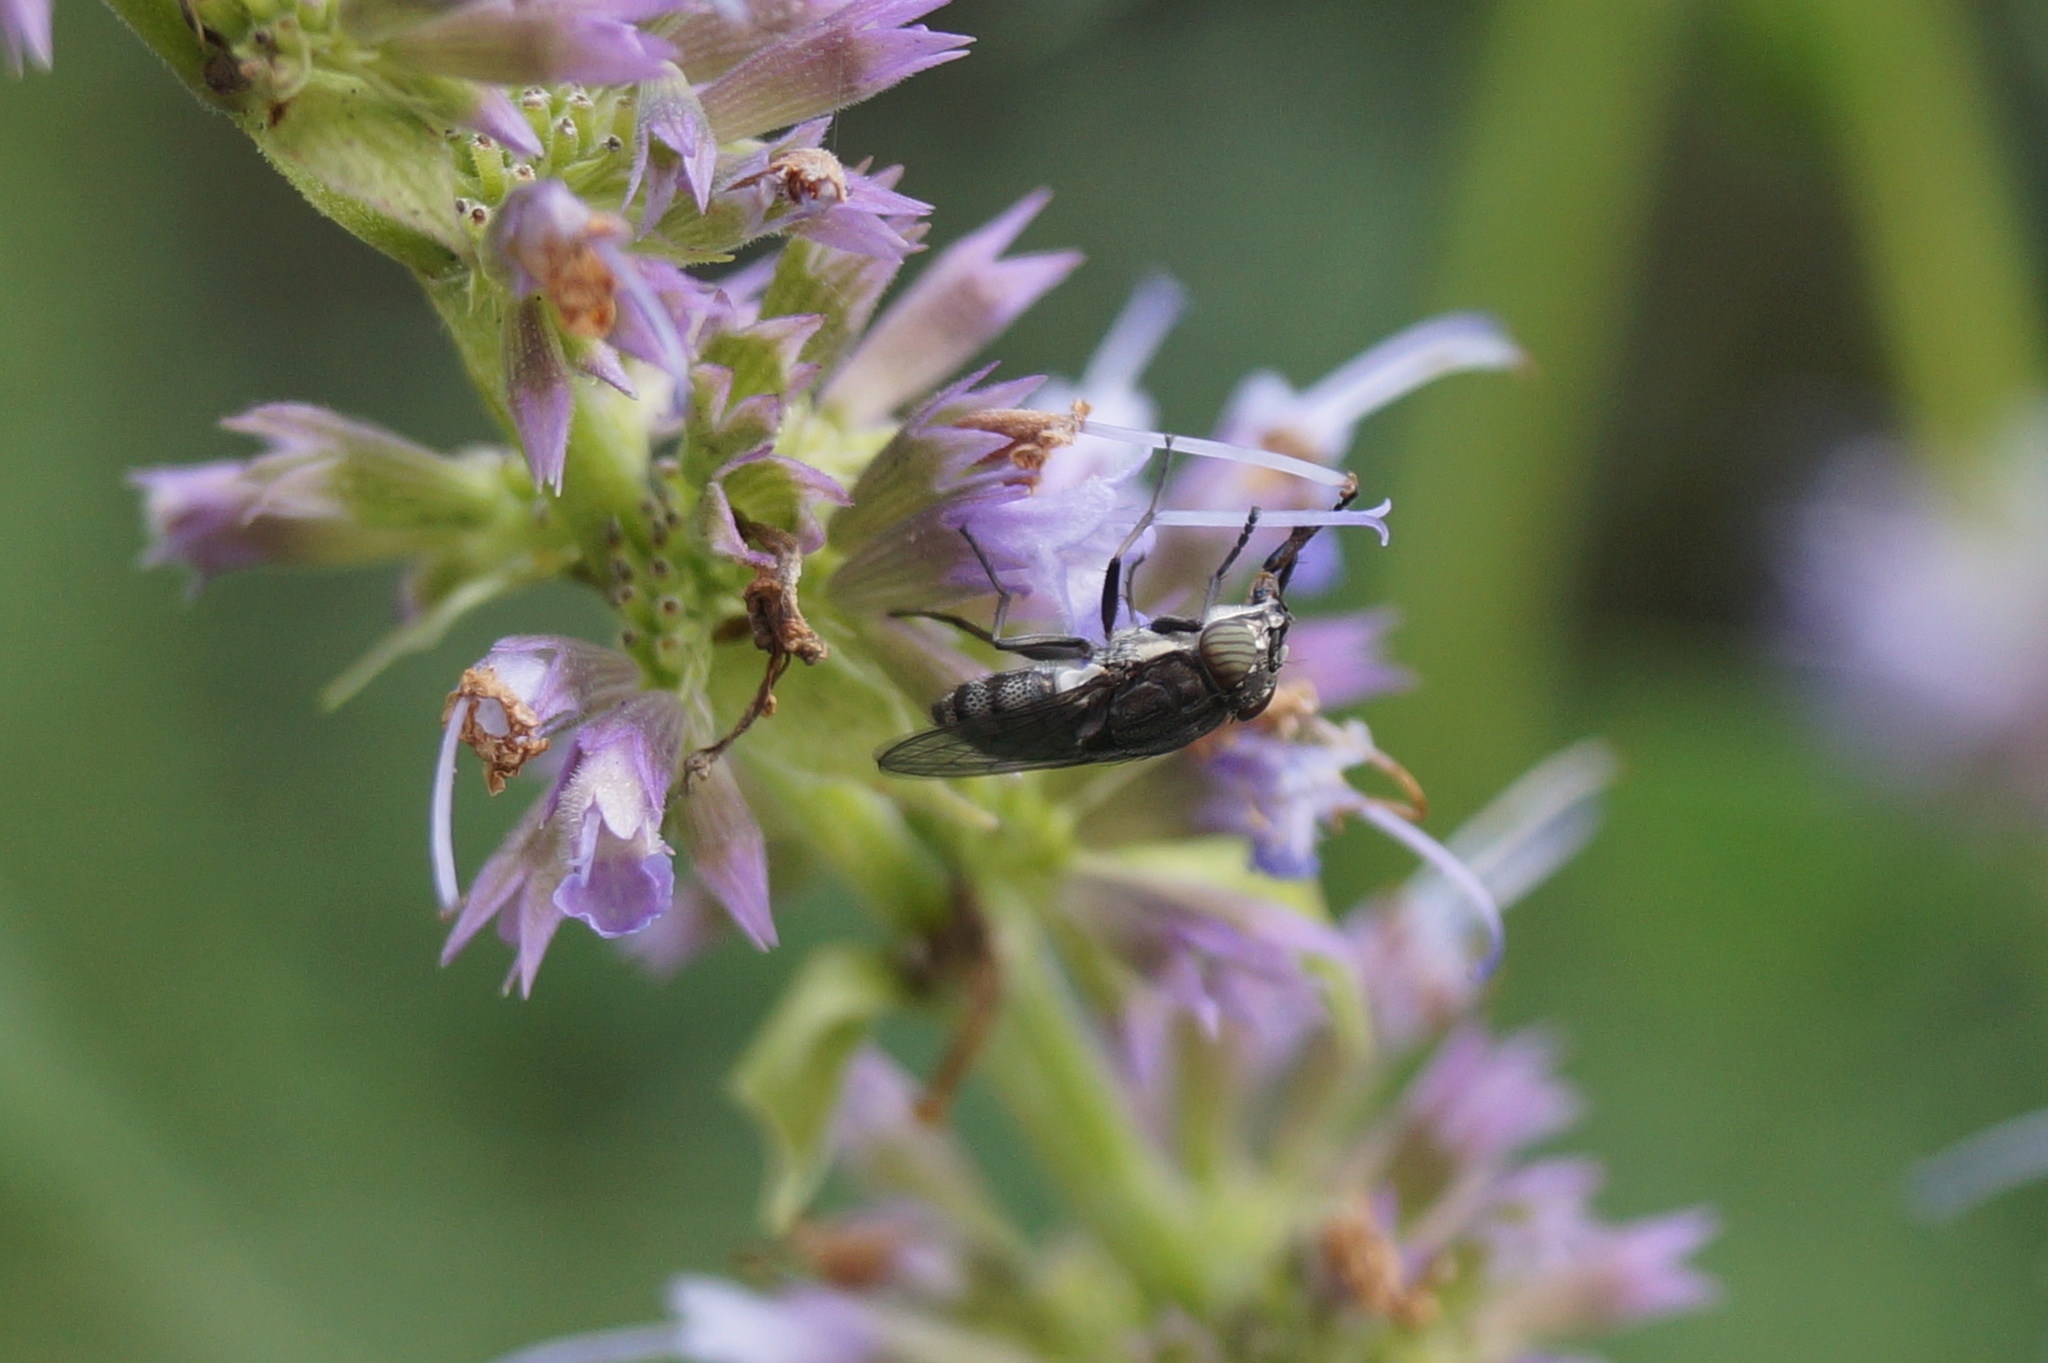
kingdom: Animalia
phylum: Arthropoda
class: Insecta
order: Diptera
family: Calliphoridae
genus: Stomorhina
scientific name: Stomorhina lunata
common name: Locust blowfly
